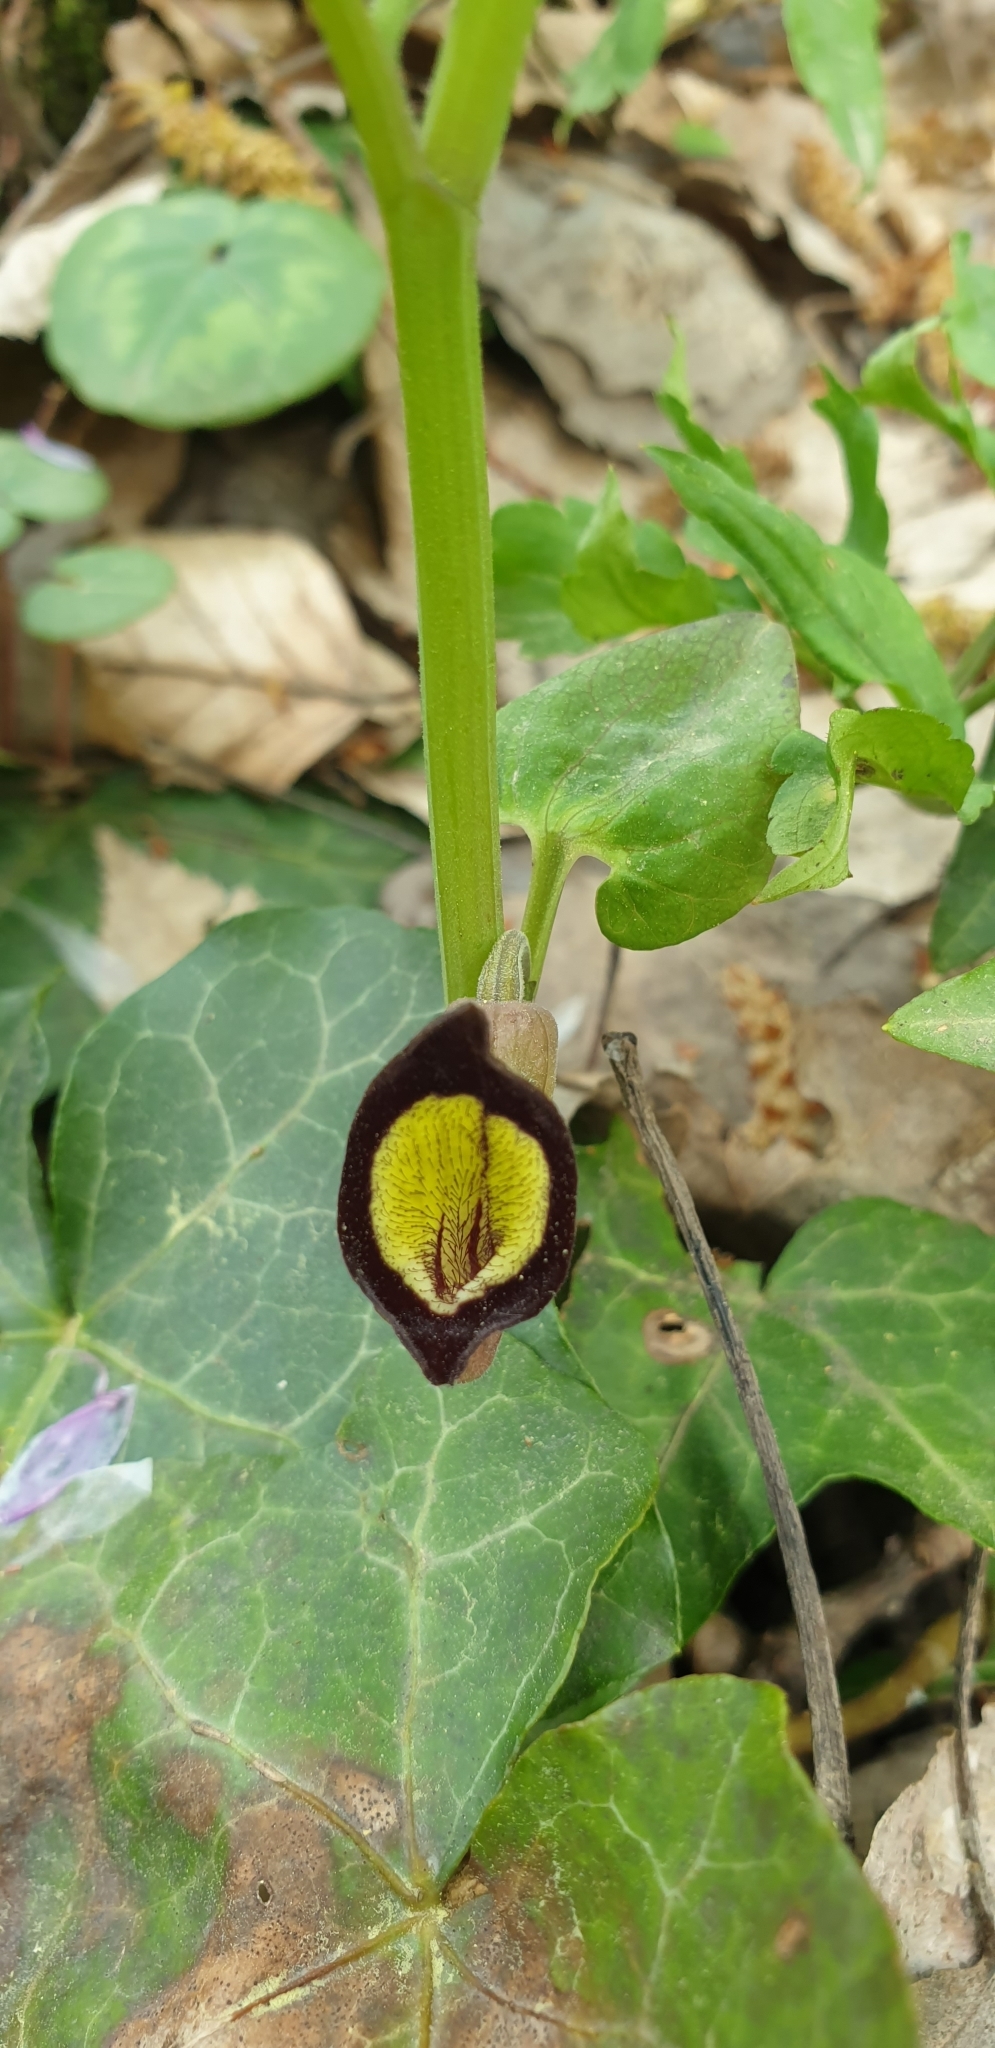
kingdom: Plantae
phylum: Tracheophyta
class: Magnoliopsida
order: Piperales
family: Aristolochiaceae
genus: Aristolochia
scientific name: Aristolochia steupii
